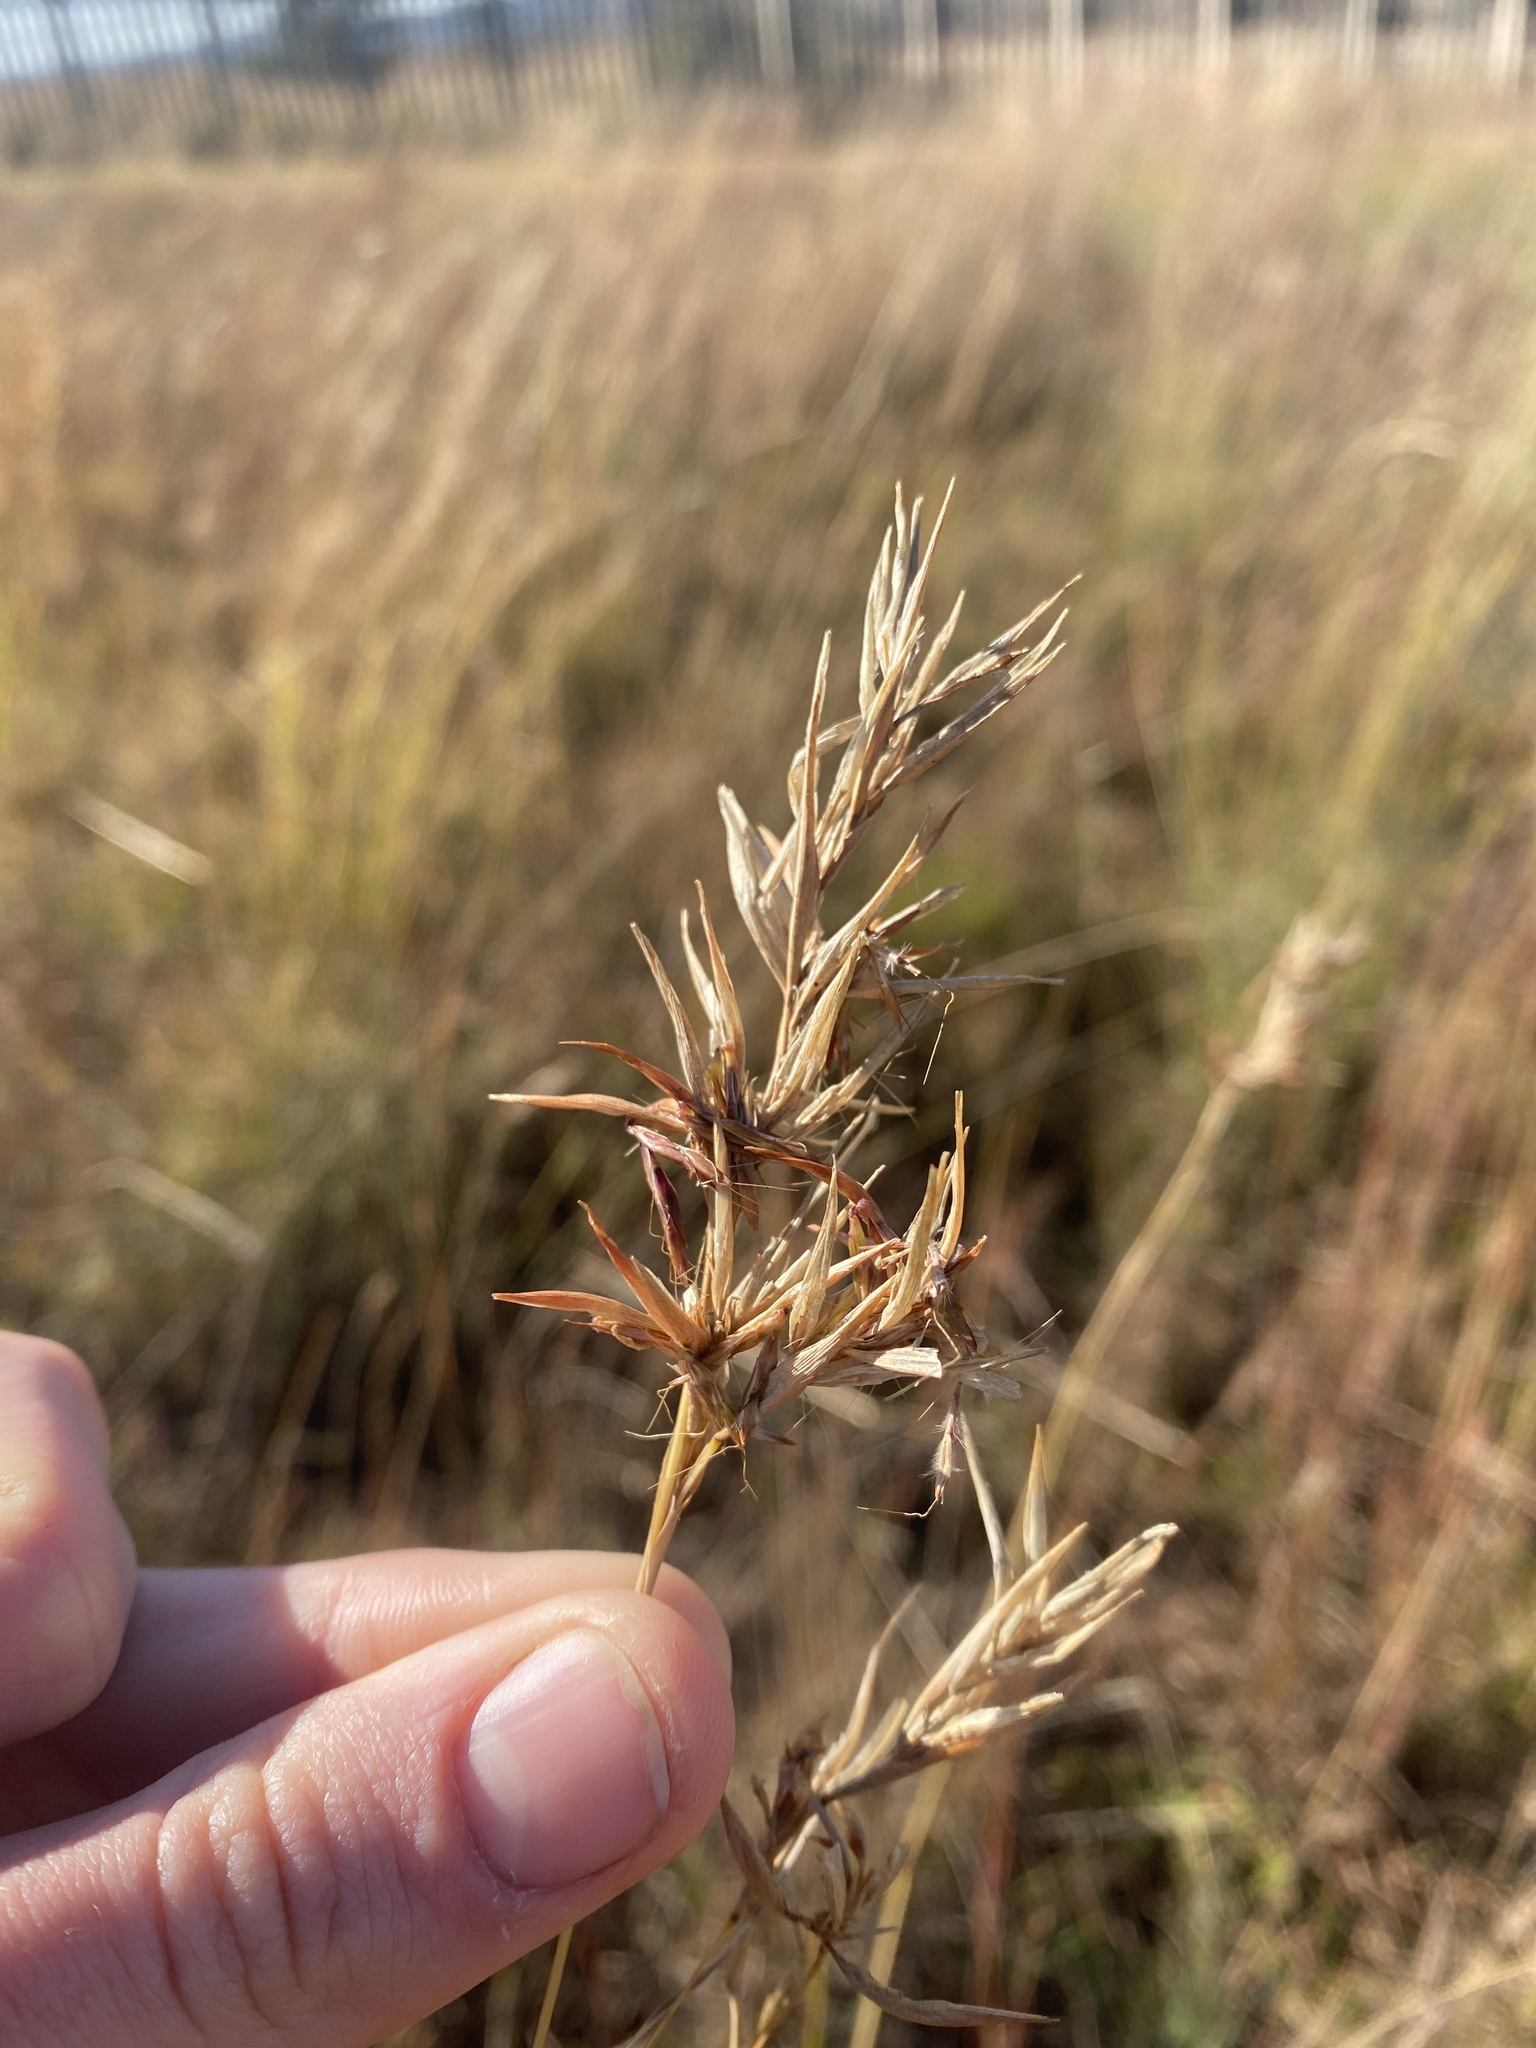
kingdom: Plantae
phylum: Tracheophyta
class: Liliopsida
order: Poales
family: Poaceae
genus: Cymbopogon
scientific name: Cymbopogon pospischilii
